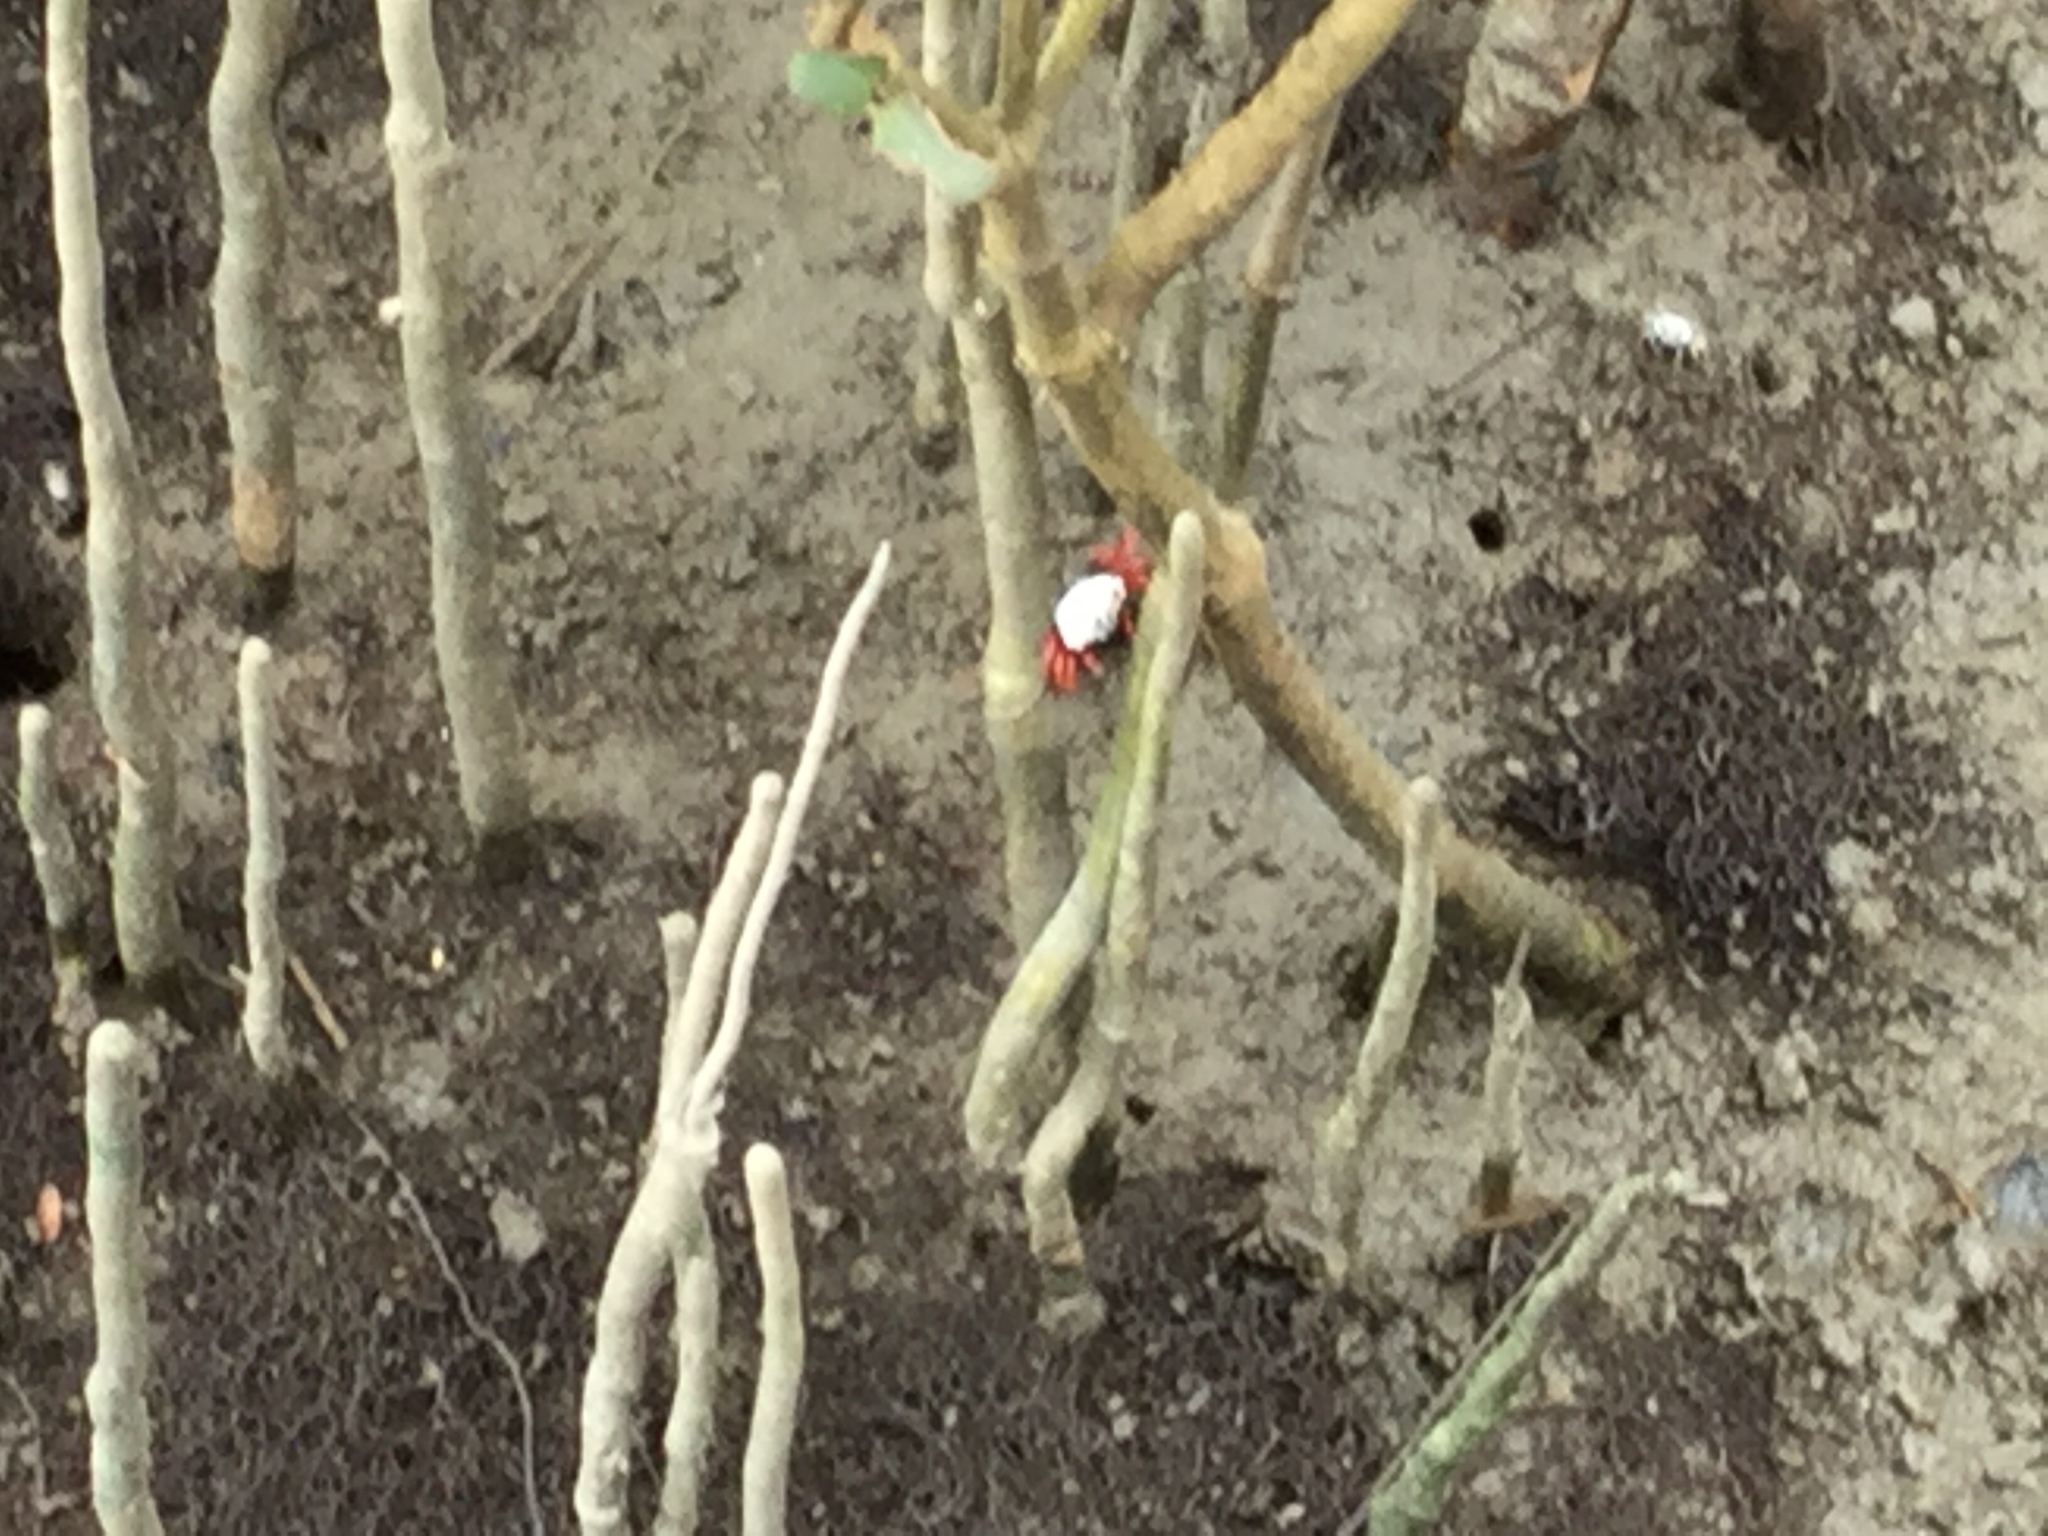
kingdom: Animalia
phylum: Arthropoda
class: Malacostraca
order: Decapoda
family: Ocypodidae
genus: Tubuca
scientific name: Tubuca arcuata
